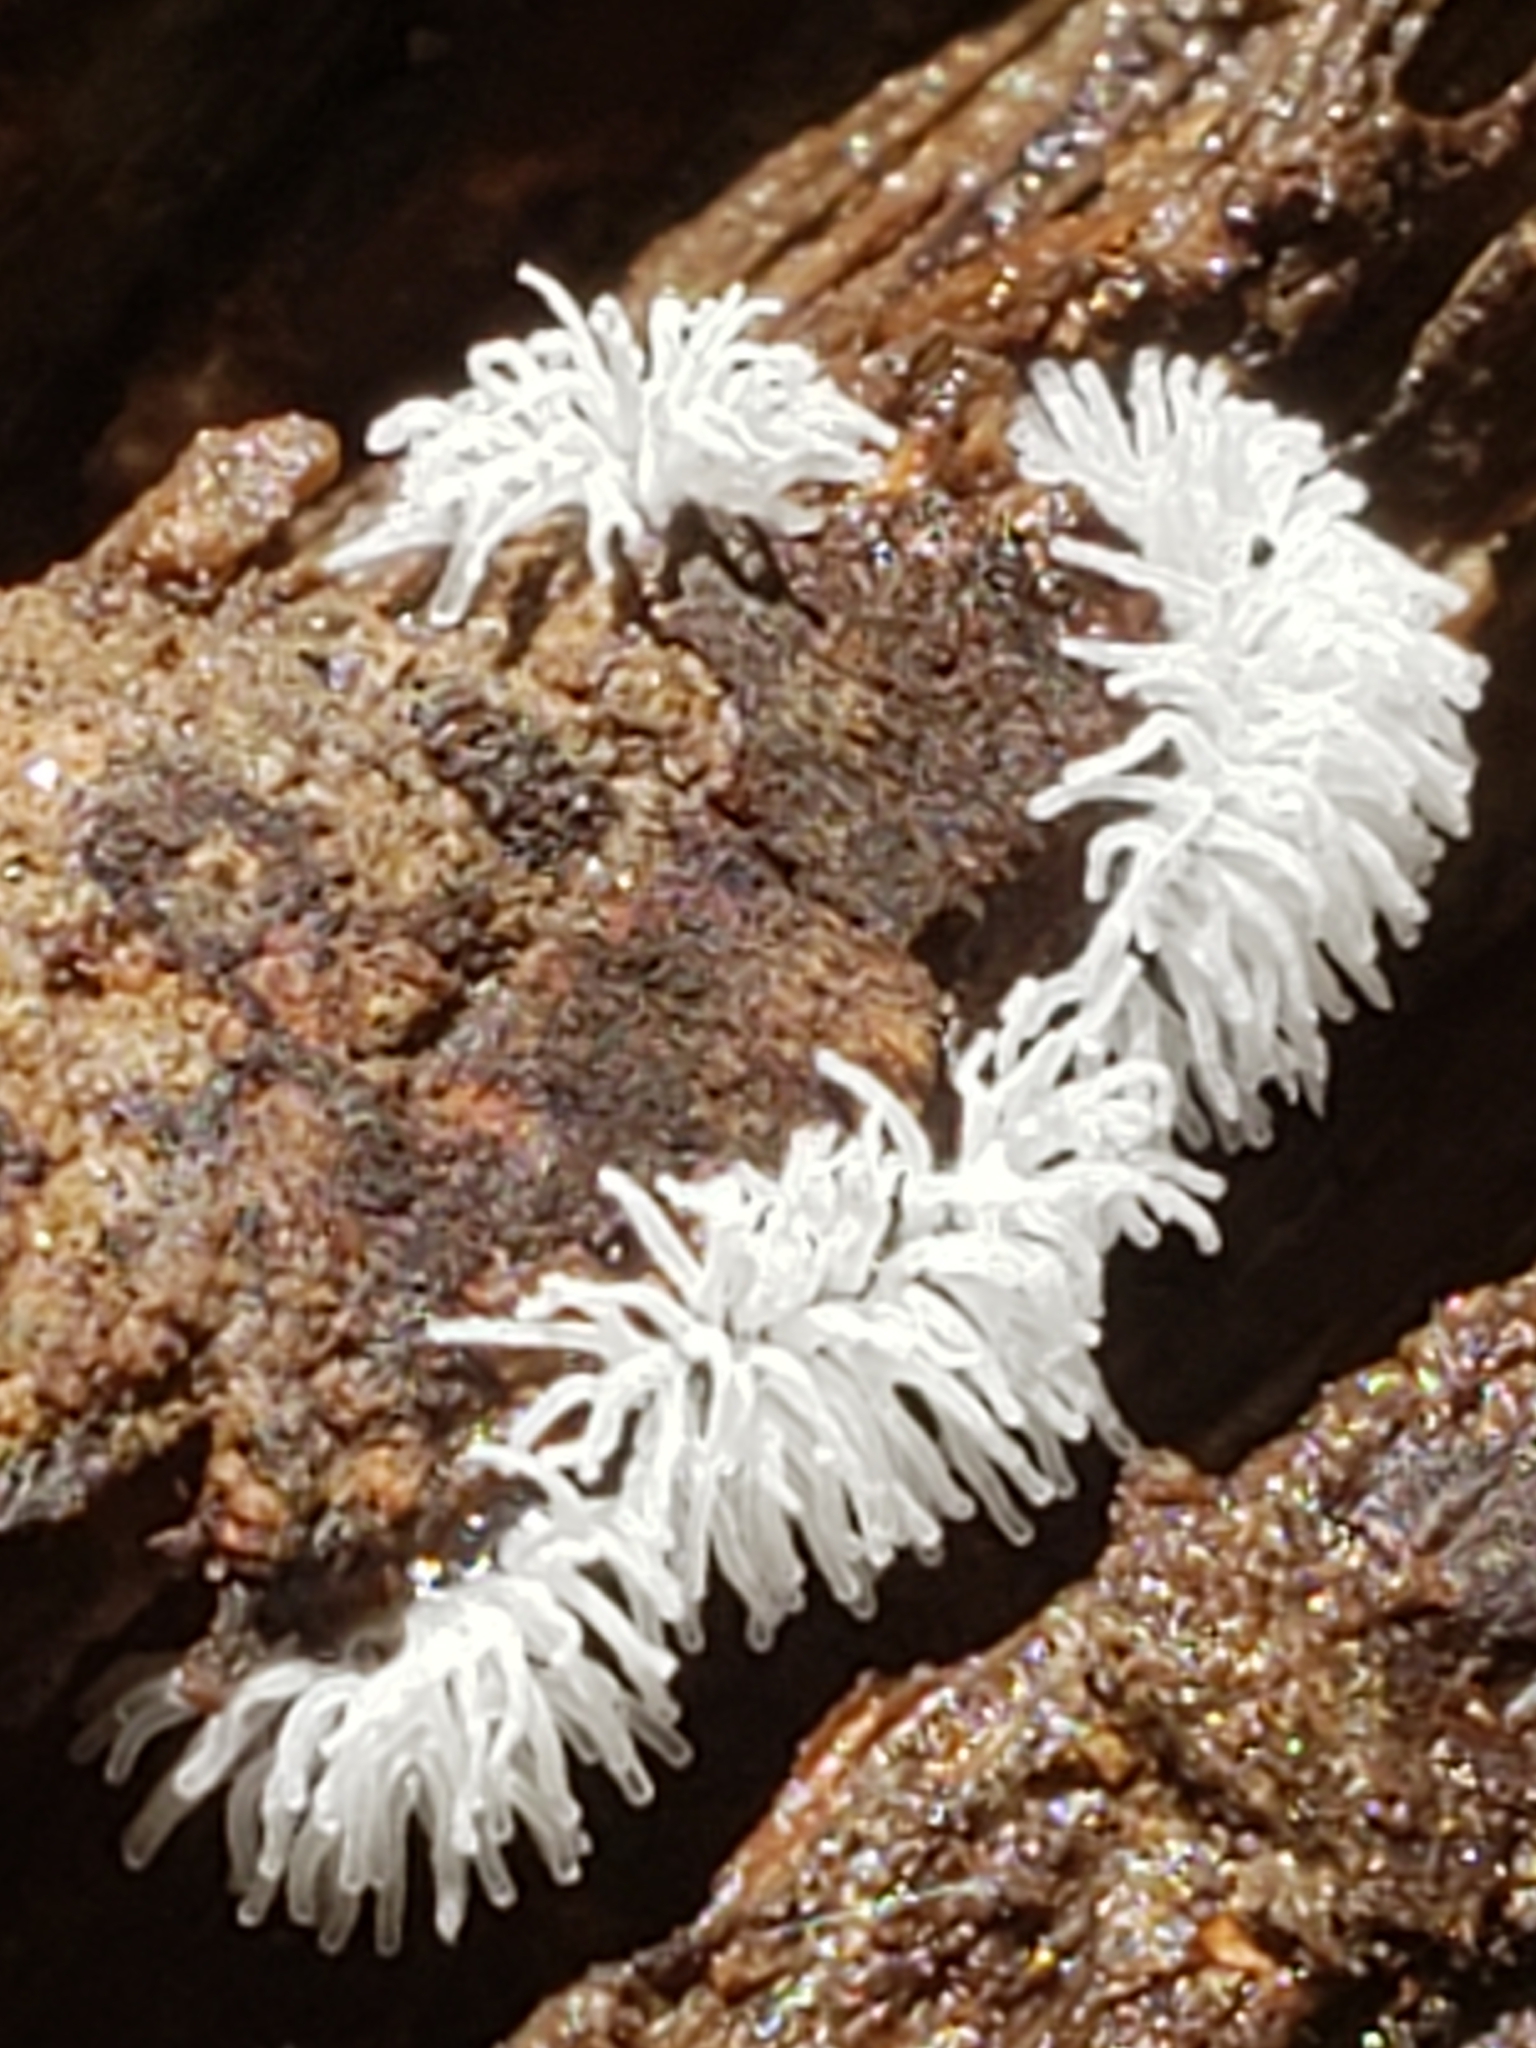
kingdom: Protozoa
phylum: Mycetozoa
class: Protosteliomycetes
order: Ceratiomyxales
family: Ceratiomyxaceae
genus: Ceratiomyxa
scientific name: Ceratiomyxa fruticulosa
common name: Honeycomb coral slime mold
